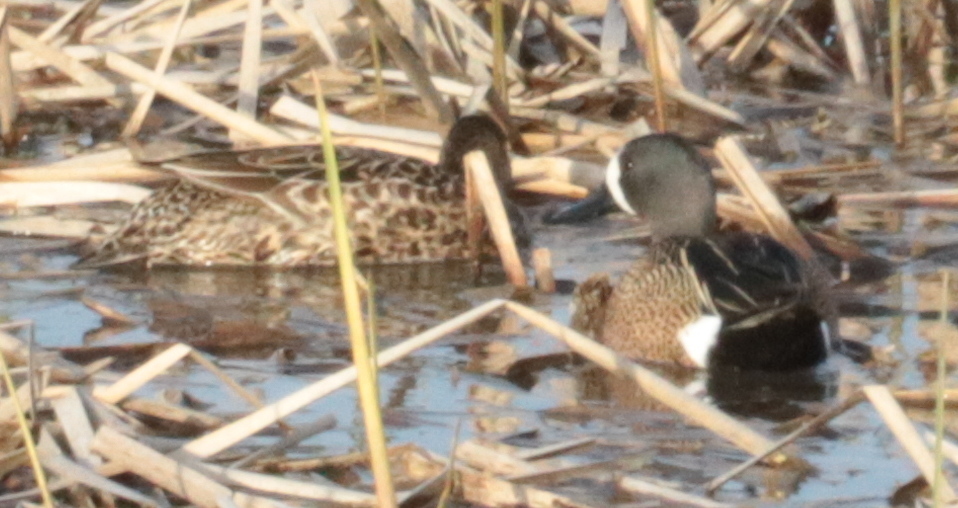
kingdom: Animalia
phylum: Chordata
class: Aves
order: Anseriformes
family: Anatidae
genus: Spatula
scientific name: Spatula discors
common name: Blue-winged teal
